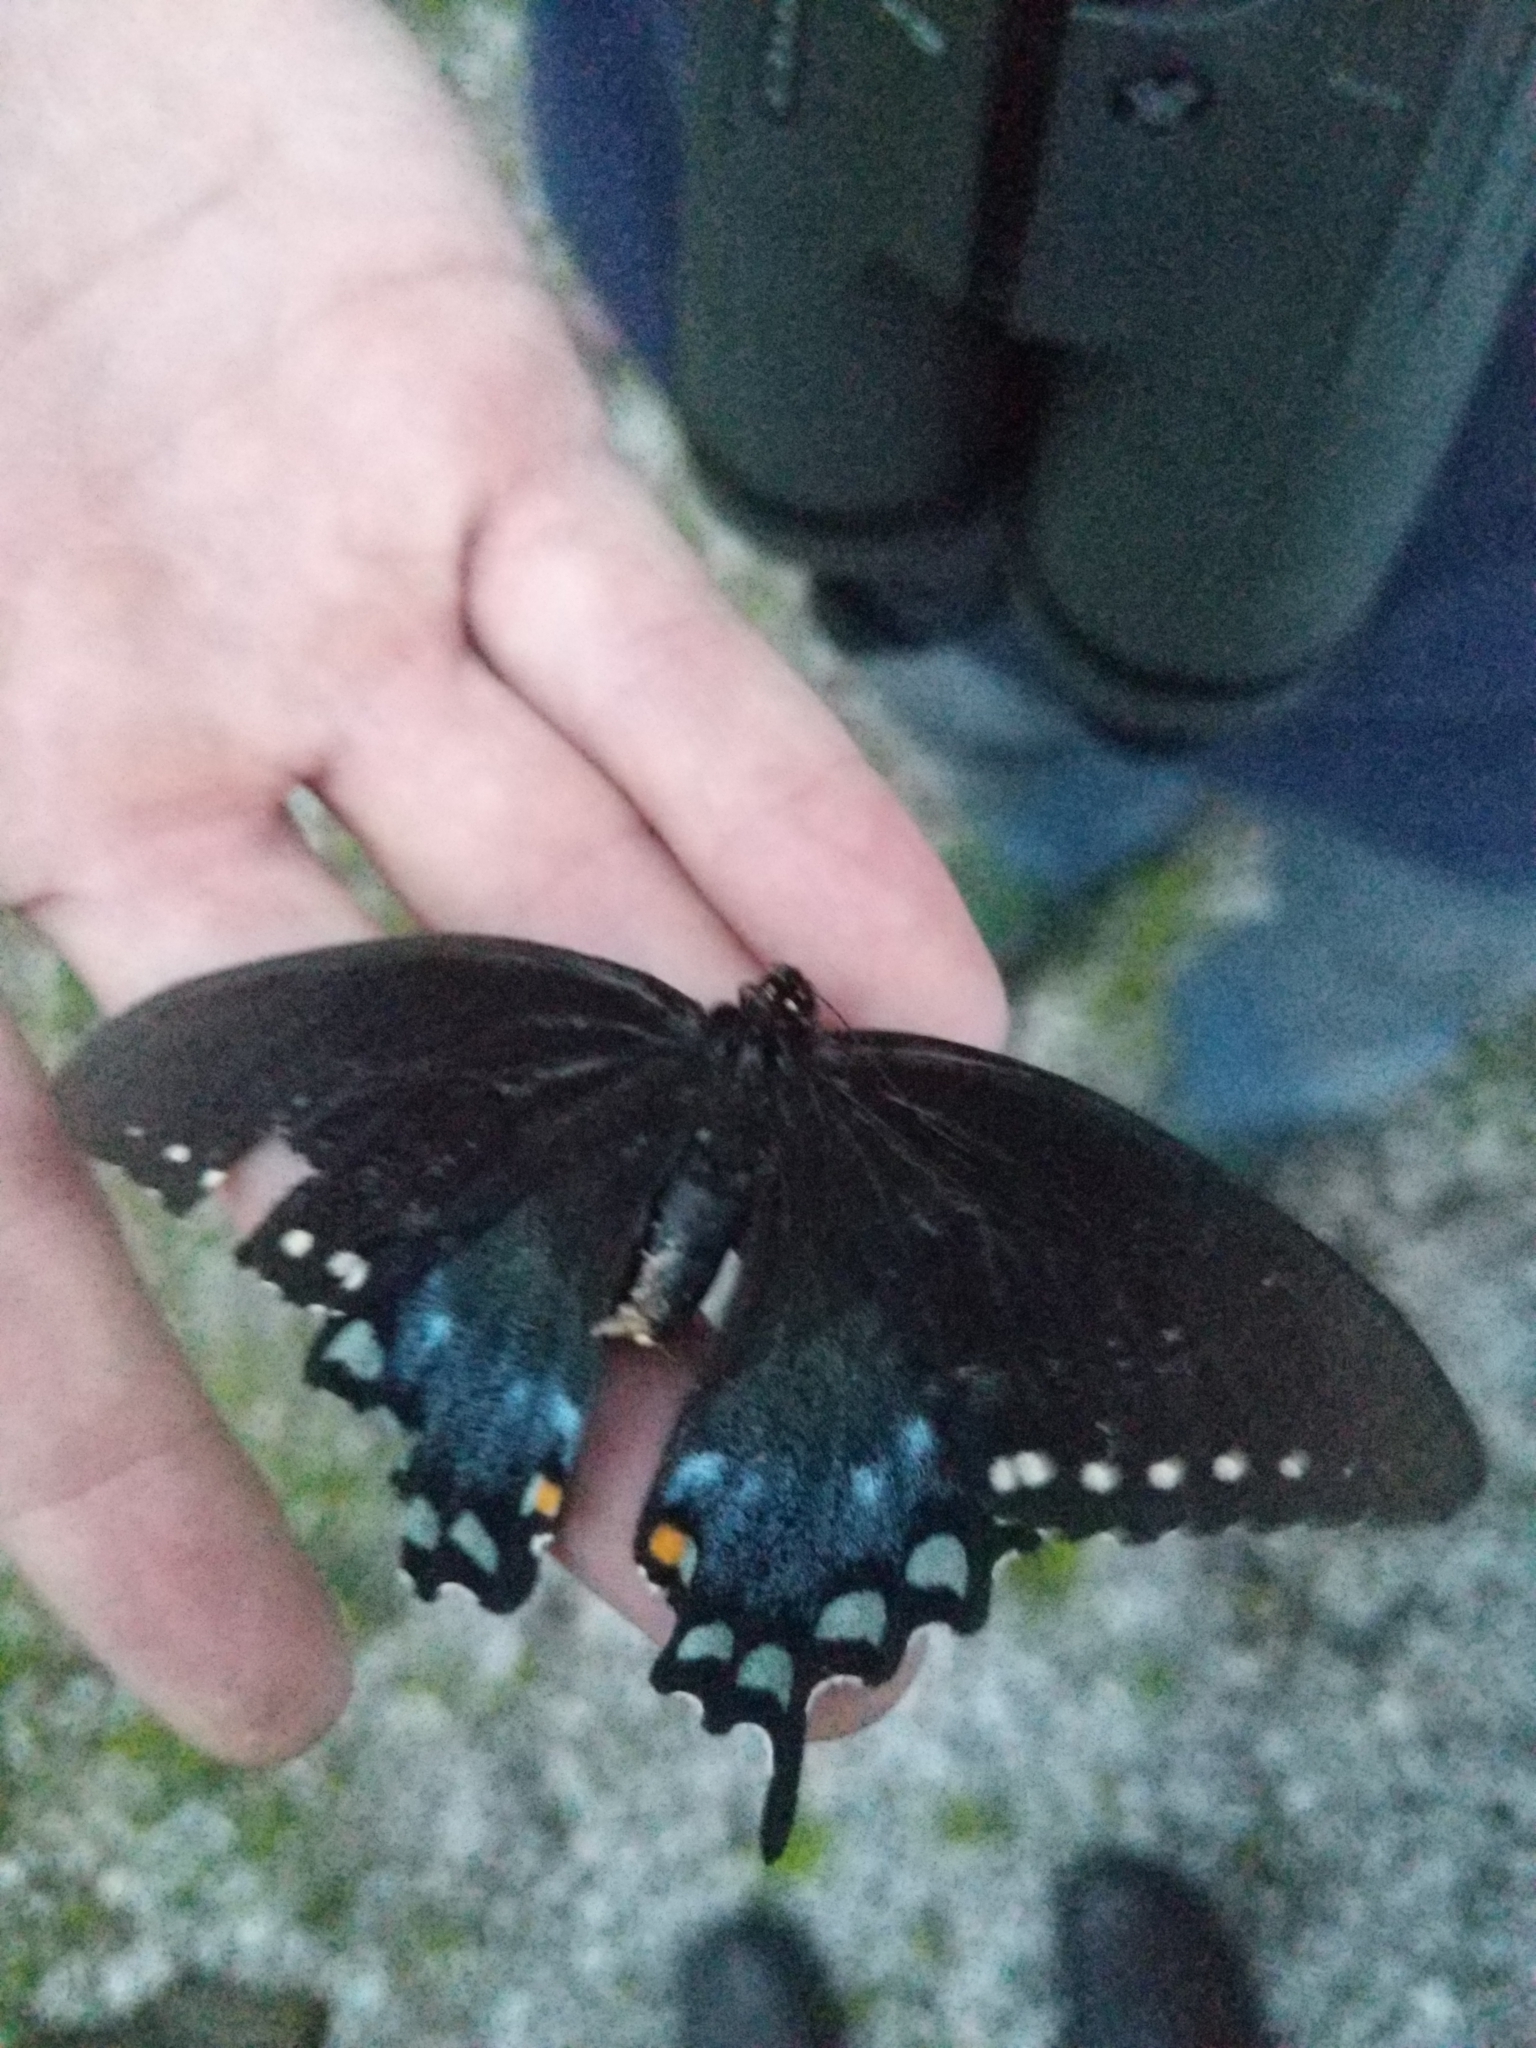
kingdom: Animalia
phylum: Arthropoda
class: Insecta
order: Lepidoptera
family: Papilionidae
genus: Papilio
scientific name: Papilio troilus
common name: Spicebush swallowtail
